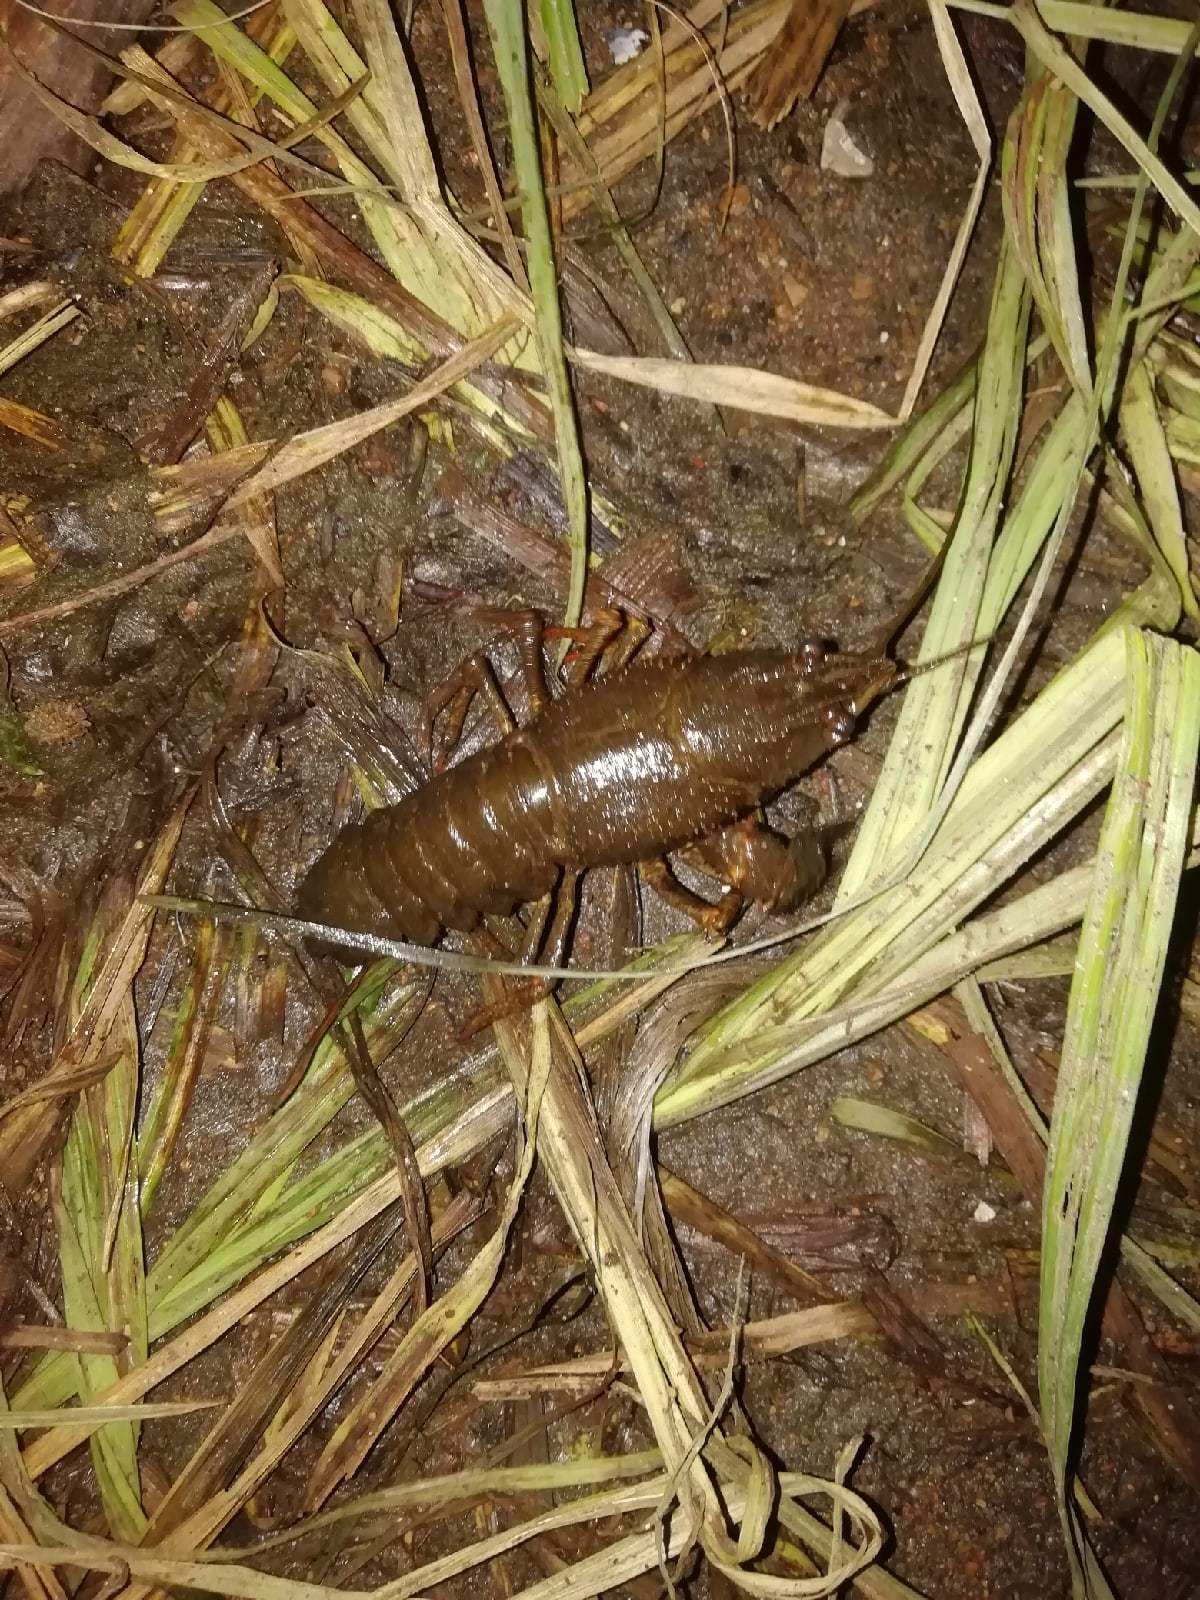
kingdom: Animalia
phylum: Arthropoda
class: Malacostraca
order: Decapoda
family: Astacidae
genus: Pontastacus
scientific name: Pontastacus leptodactylus
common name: Danube crayfish
